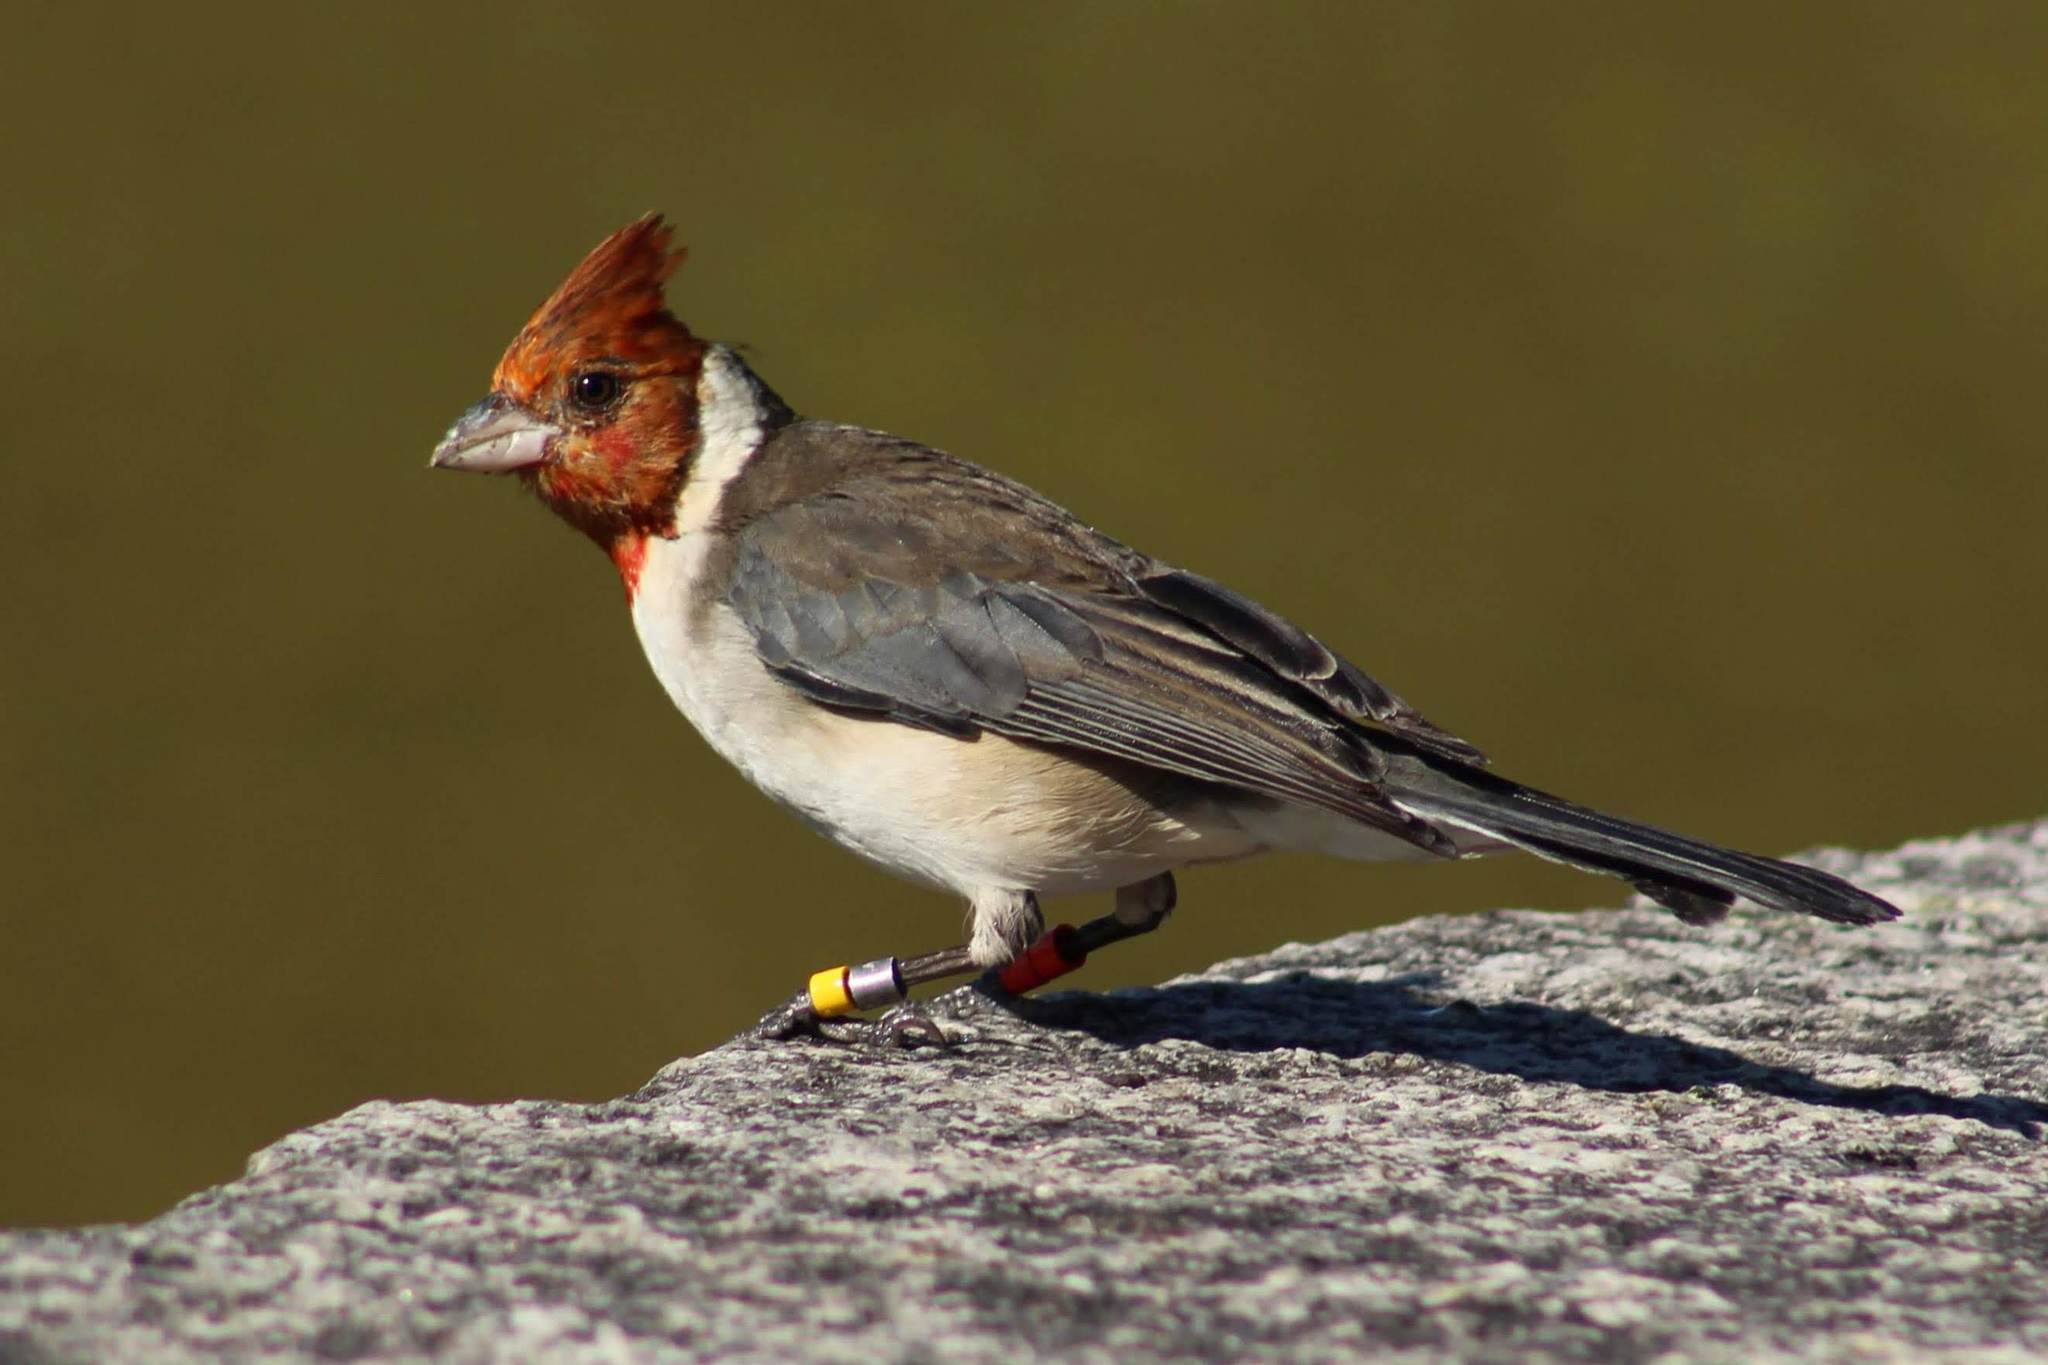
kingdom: Animalia
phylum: Chordata
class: Aves
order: Passeriformes
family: Thraupidae
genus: Paroaria
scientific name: Paroaria coronata
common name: Red-crested cardinal
